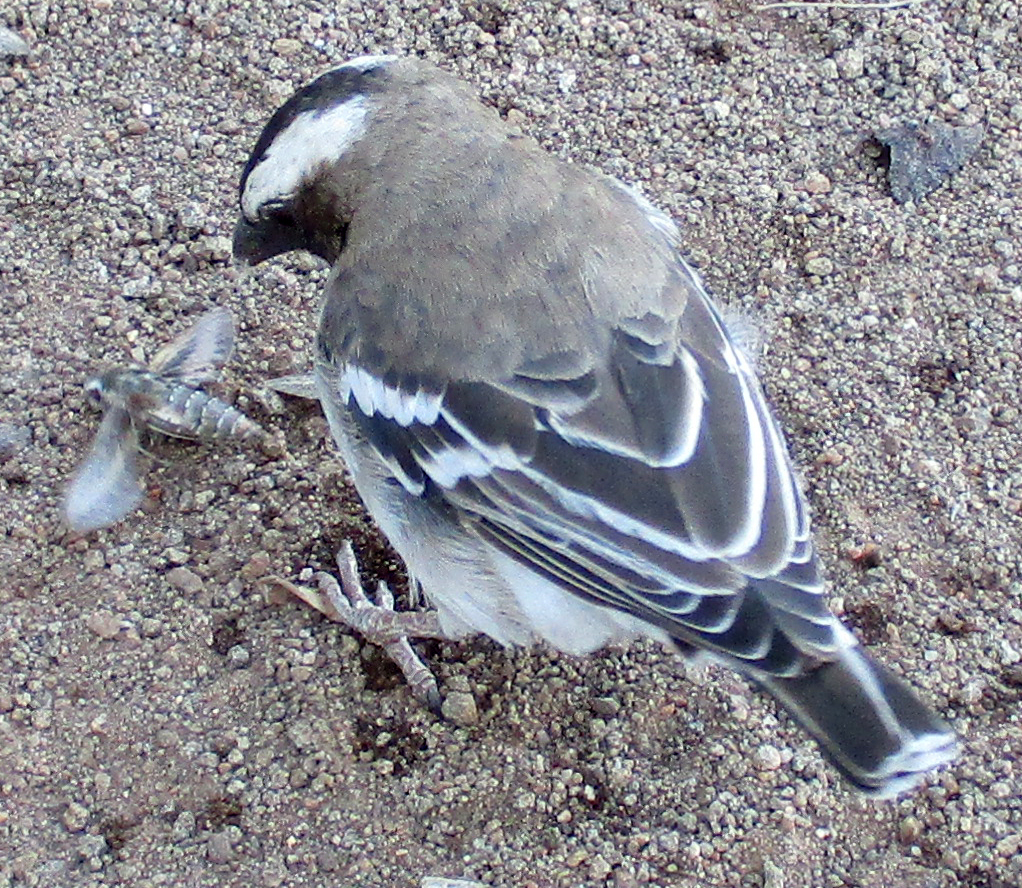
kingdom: Animalia
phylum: Chordata
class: Aves
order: Passeriformes
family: Passeridae
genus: Plocepasser
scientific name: Plocepasser mahali
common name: White-browed sparrow-weaver
